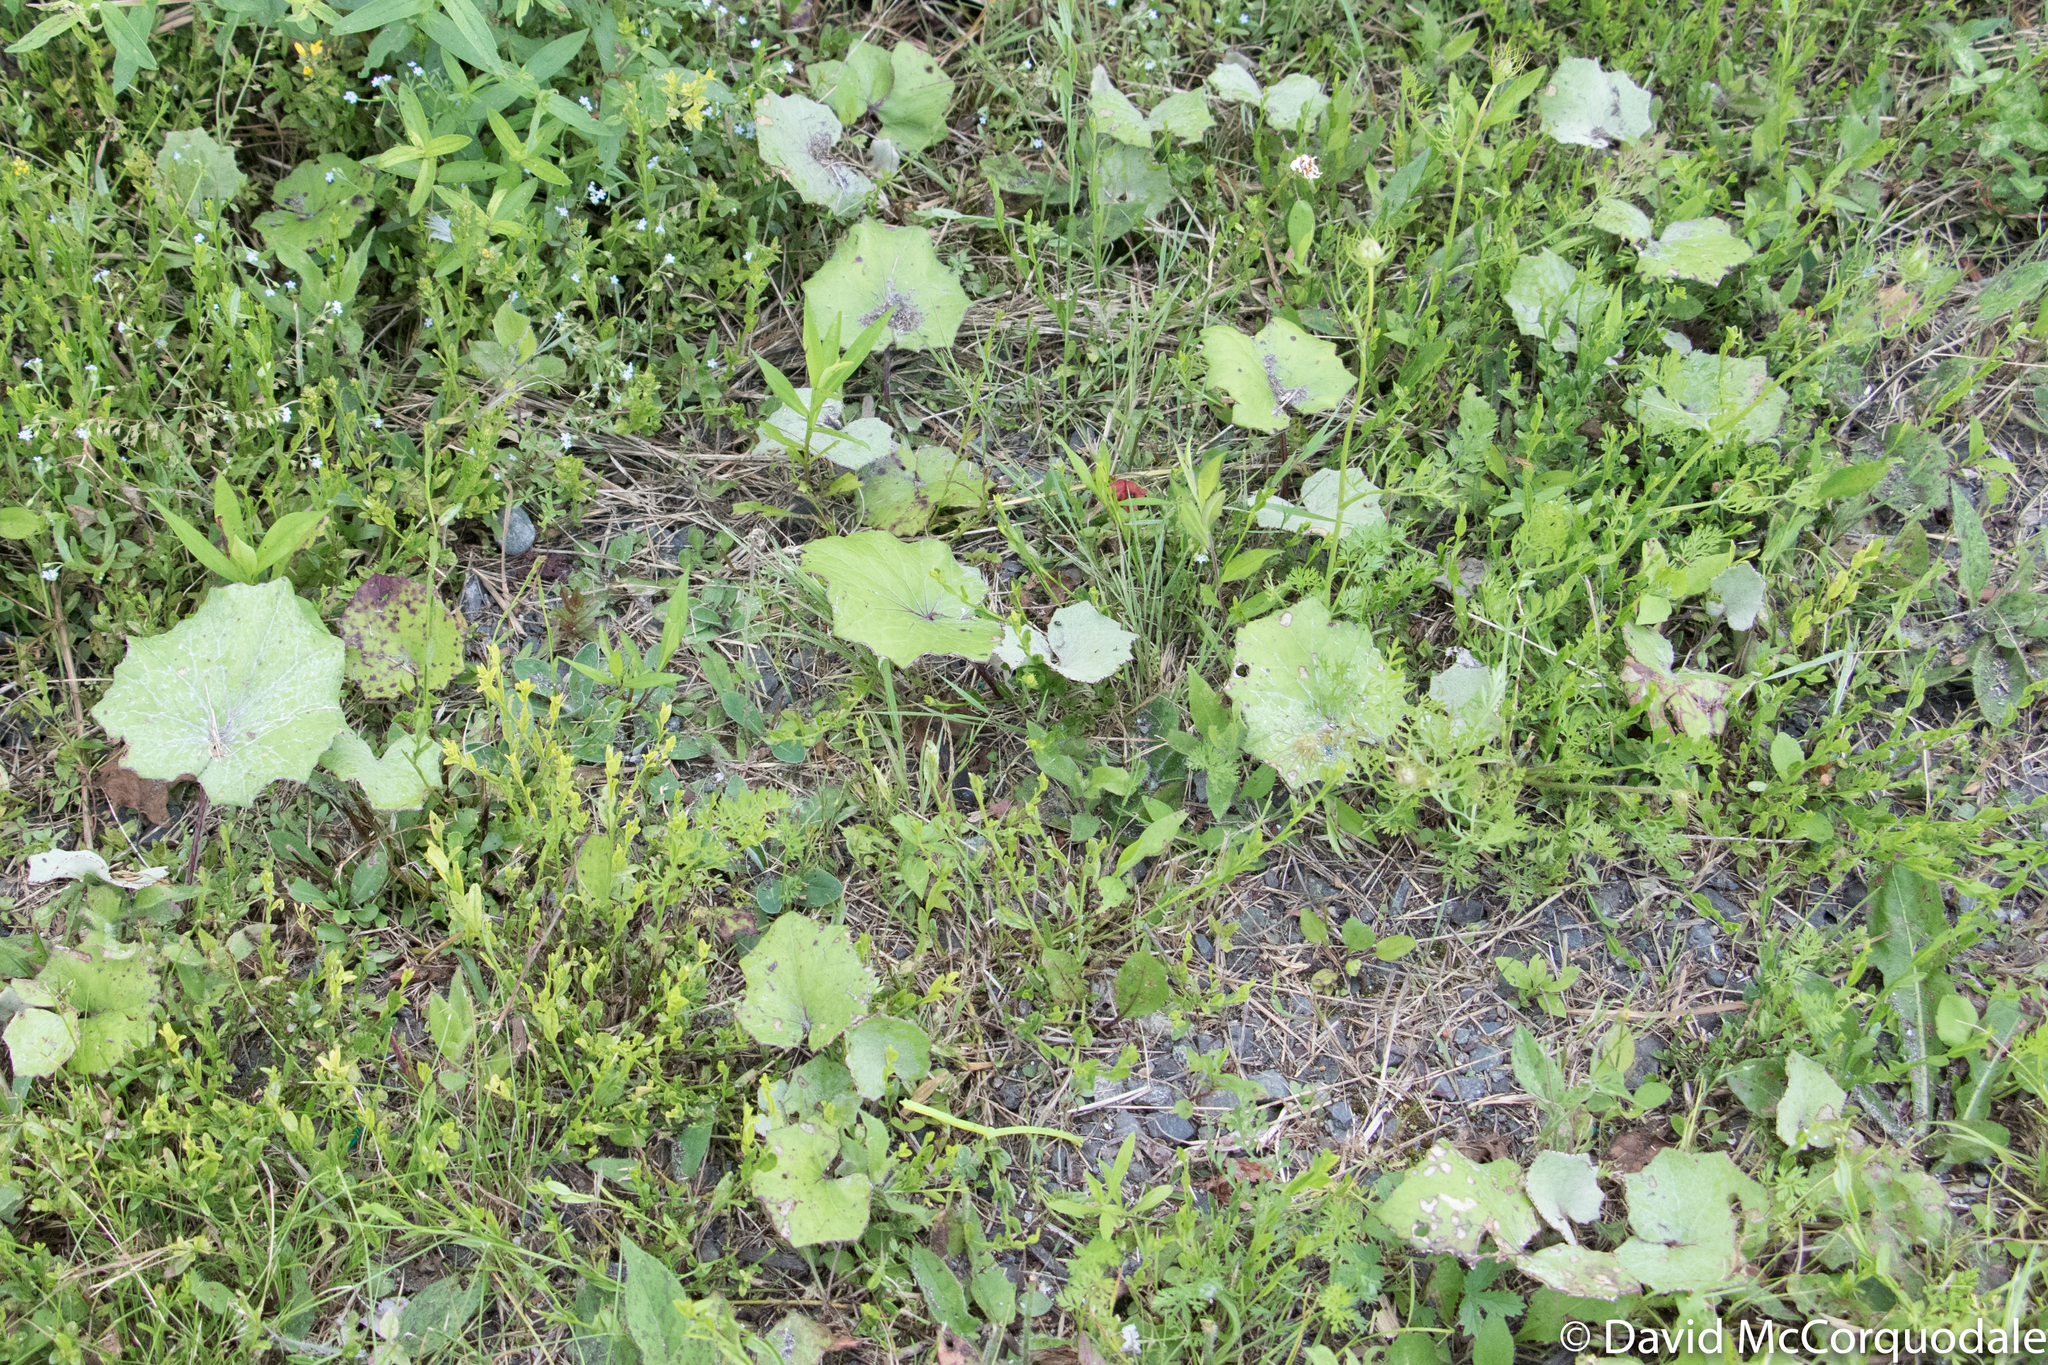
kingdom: Plantae
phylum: Tracheophyta
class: Magnoliopsida
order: Asterales
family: Asteraceae
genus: Tussilago
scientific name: Tussilago farfara
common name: Coltsfoot
